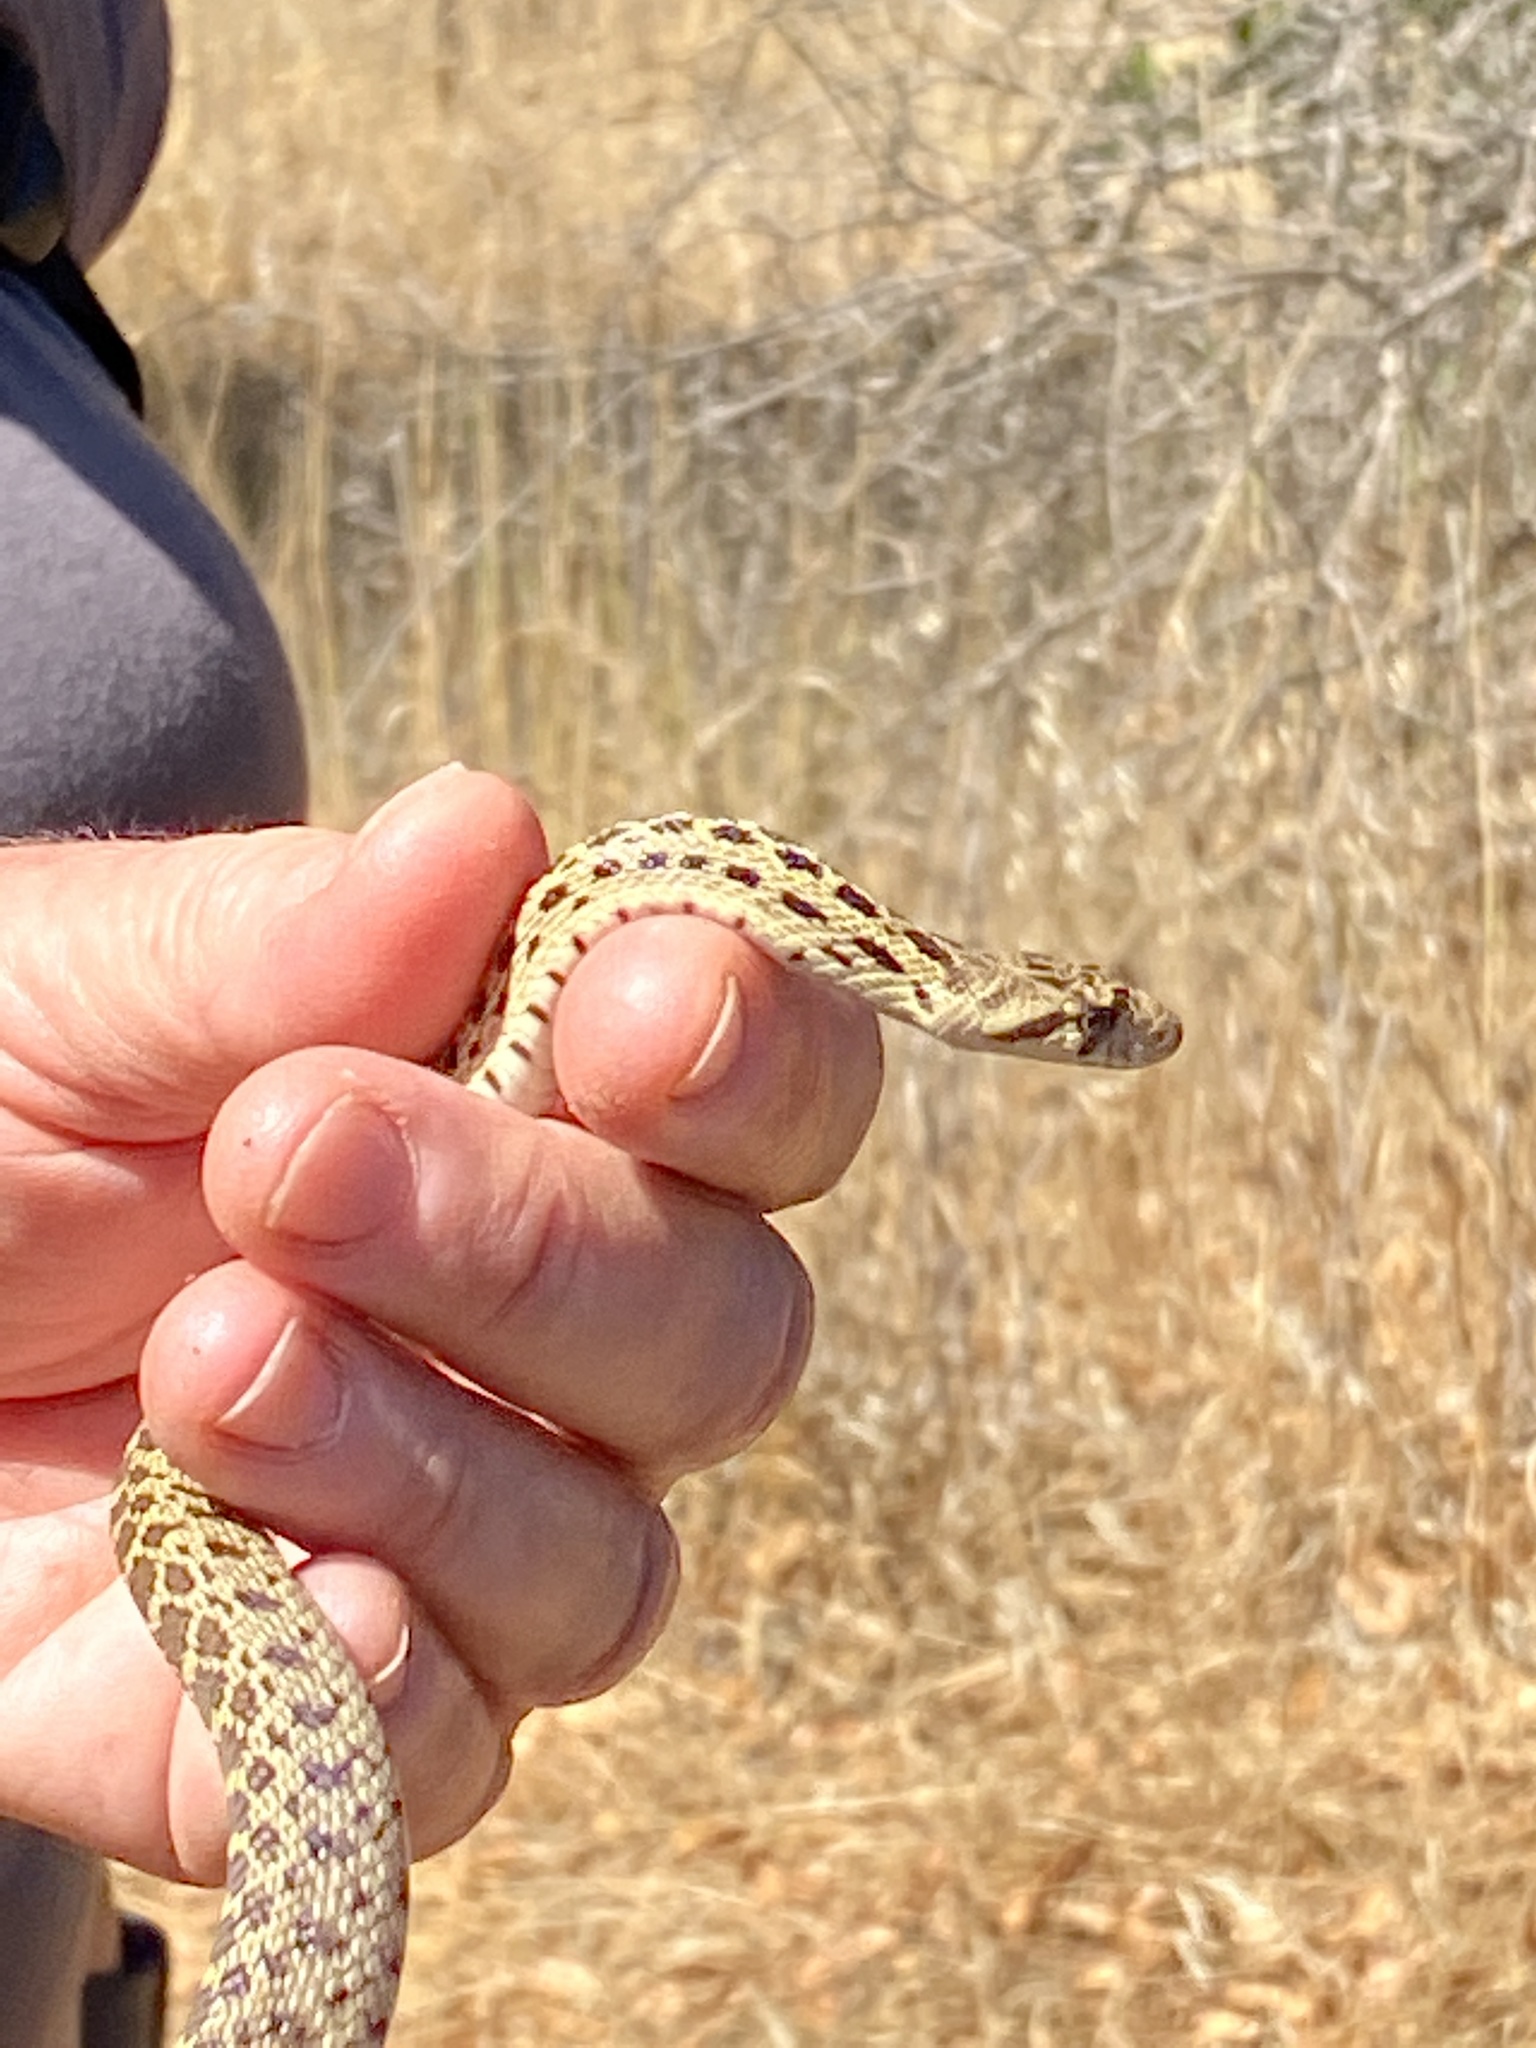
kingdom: Animalia
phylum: Chordata
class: Squamata
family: Colubridae
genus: Pituophis
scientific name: Pituophis catenifer
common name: Gopher snake
